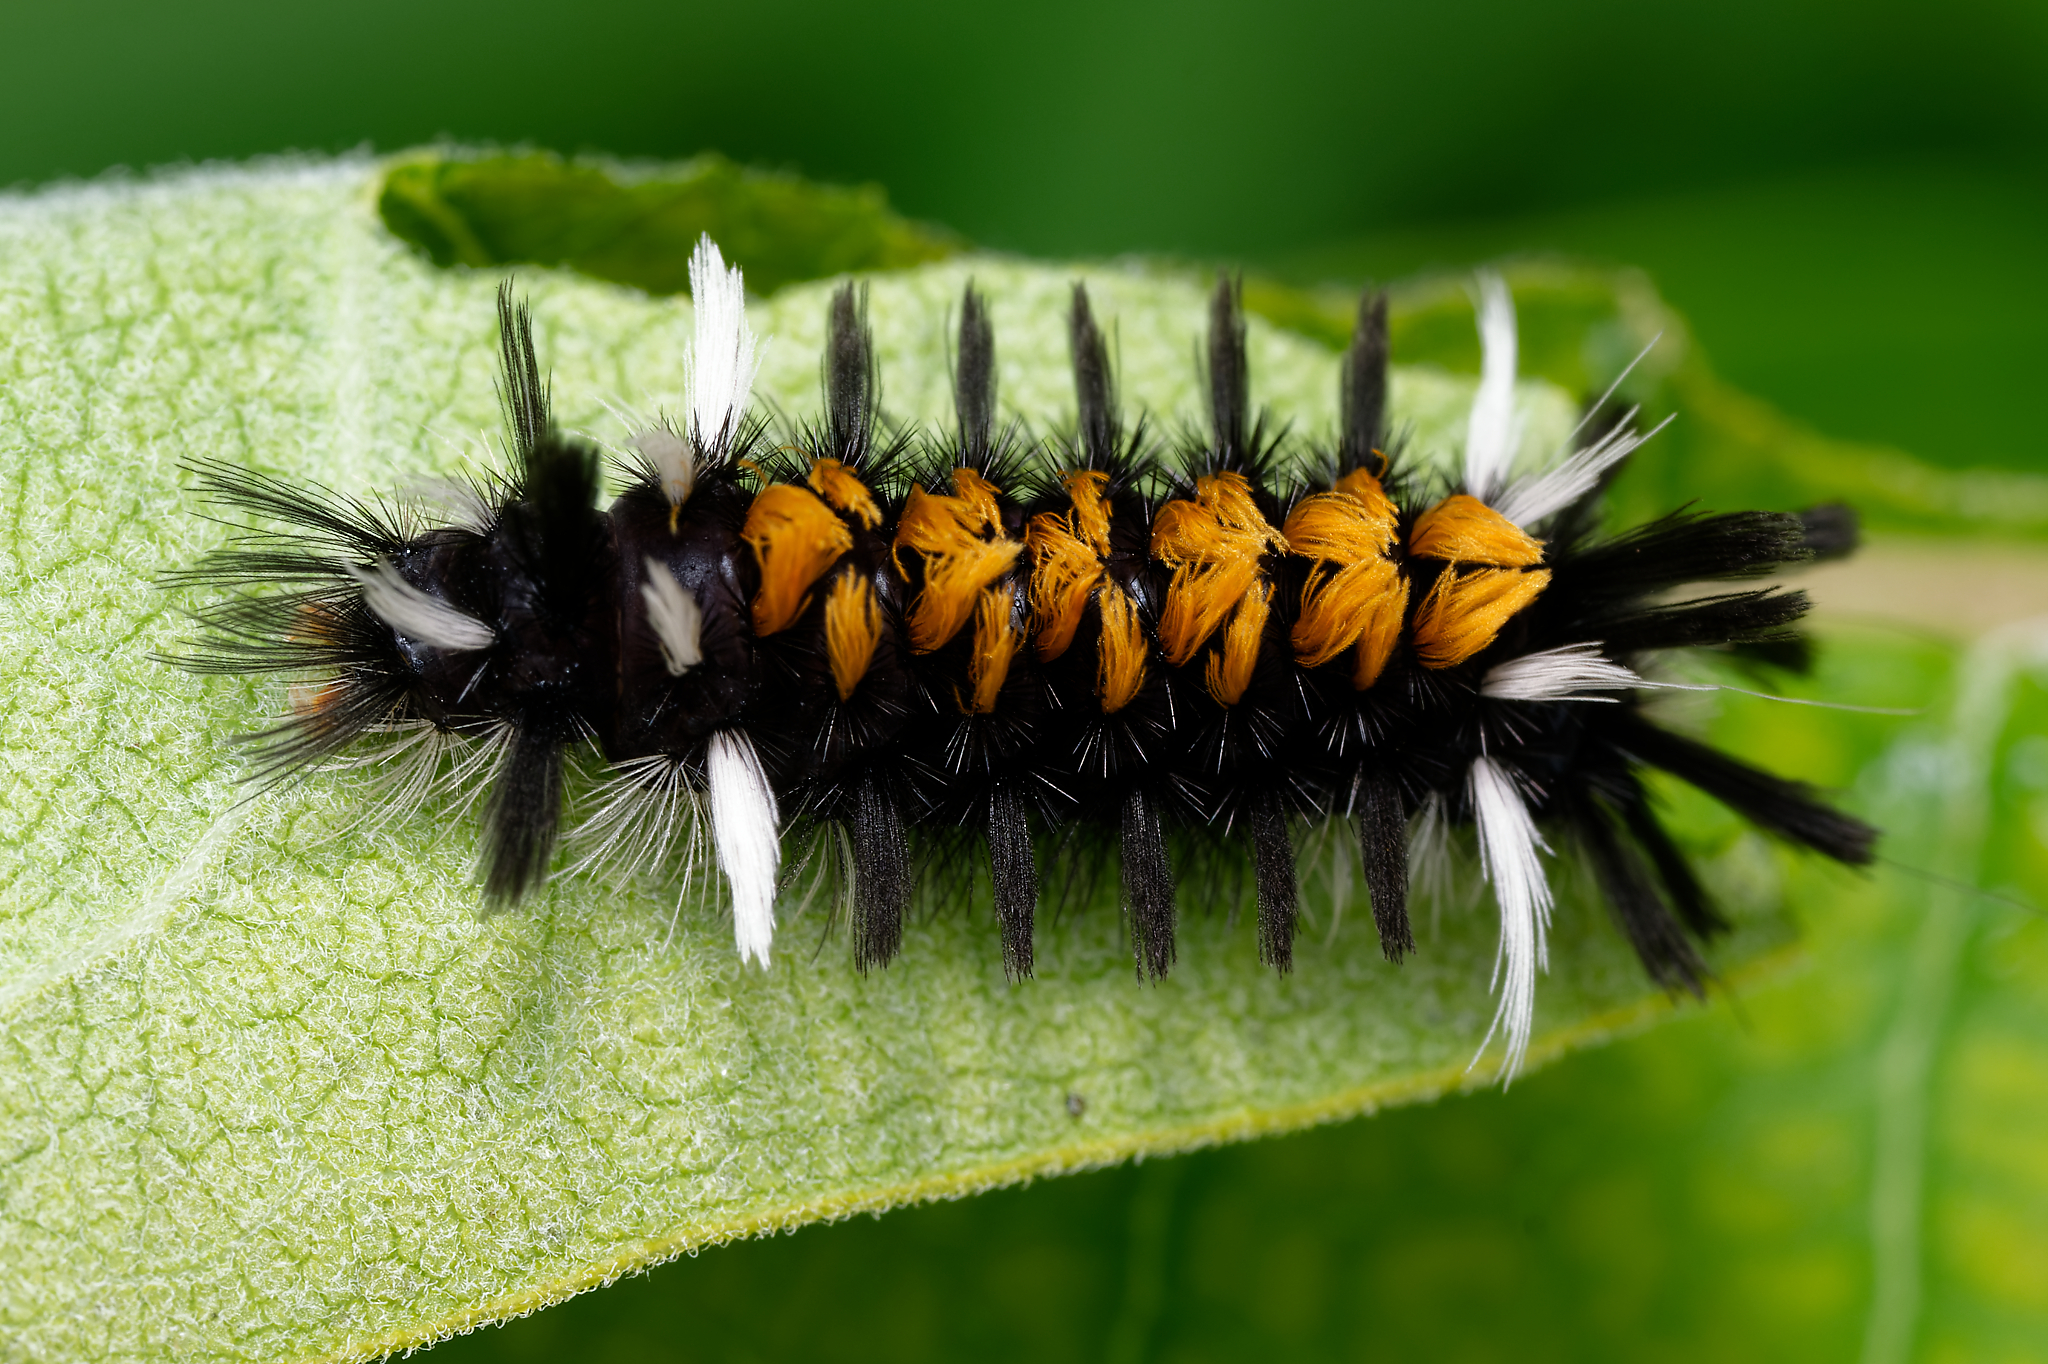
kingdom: Animalia
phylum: Arthropoda
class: Insecta
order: Lepidoptera
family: Erebidae
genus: Euchaetes
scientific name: Euchaetes egle
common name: Milkweed tussock moth
